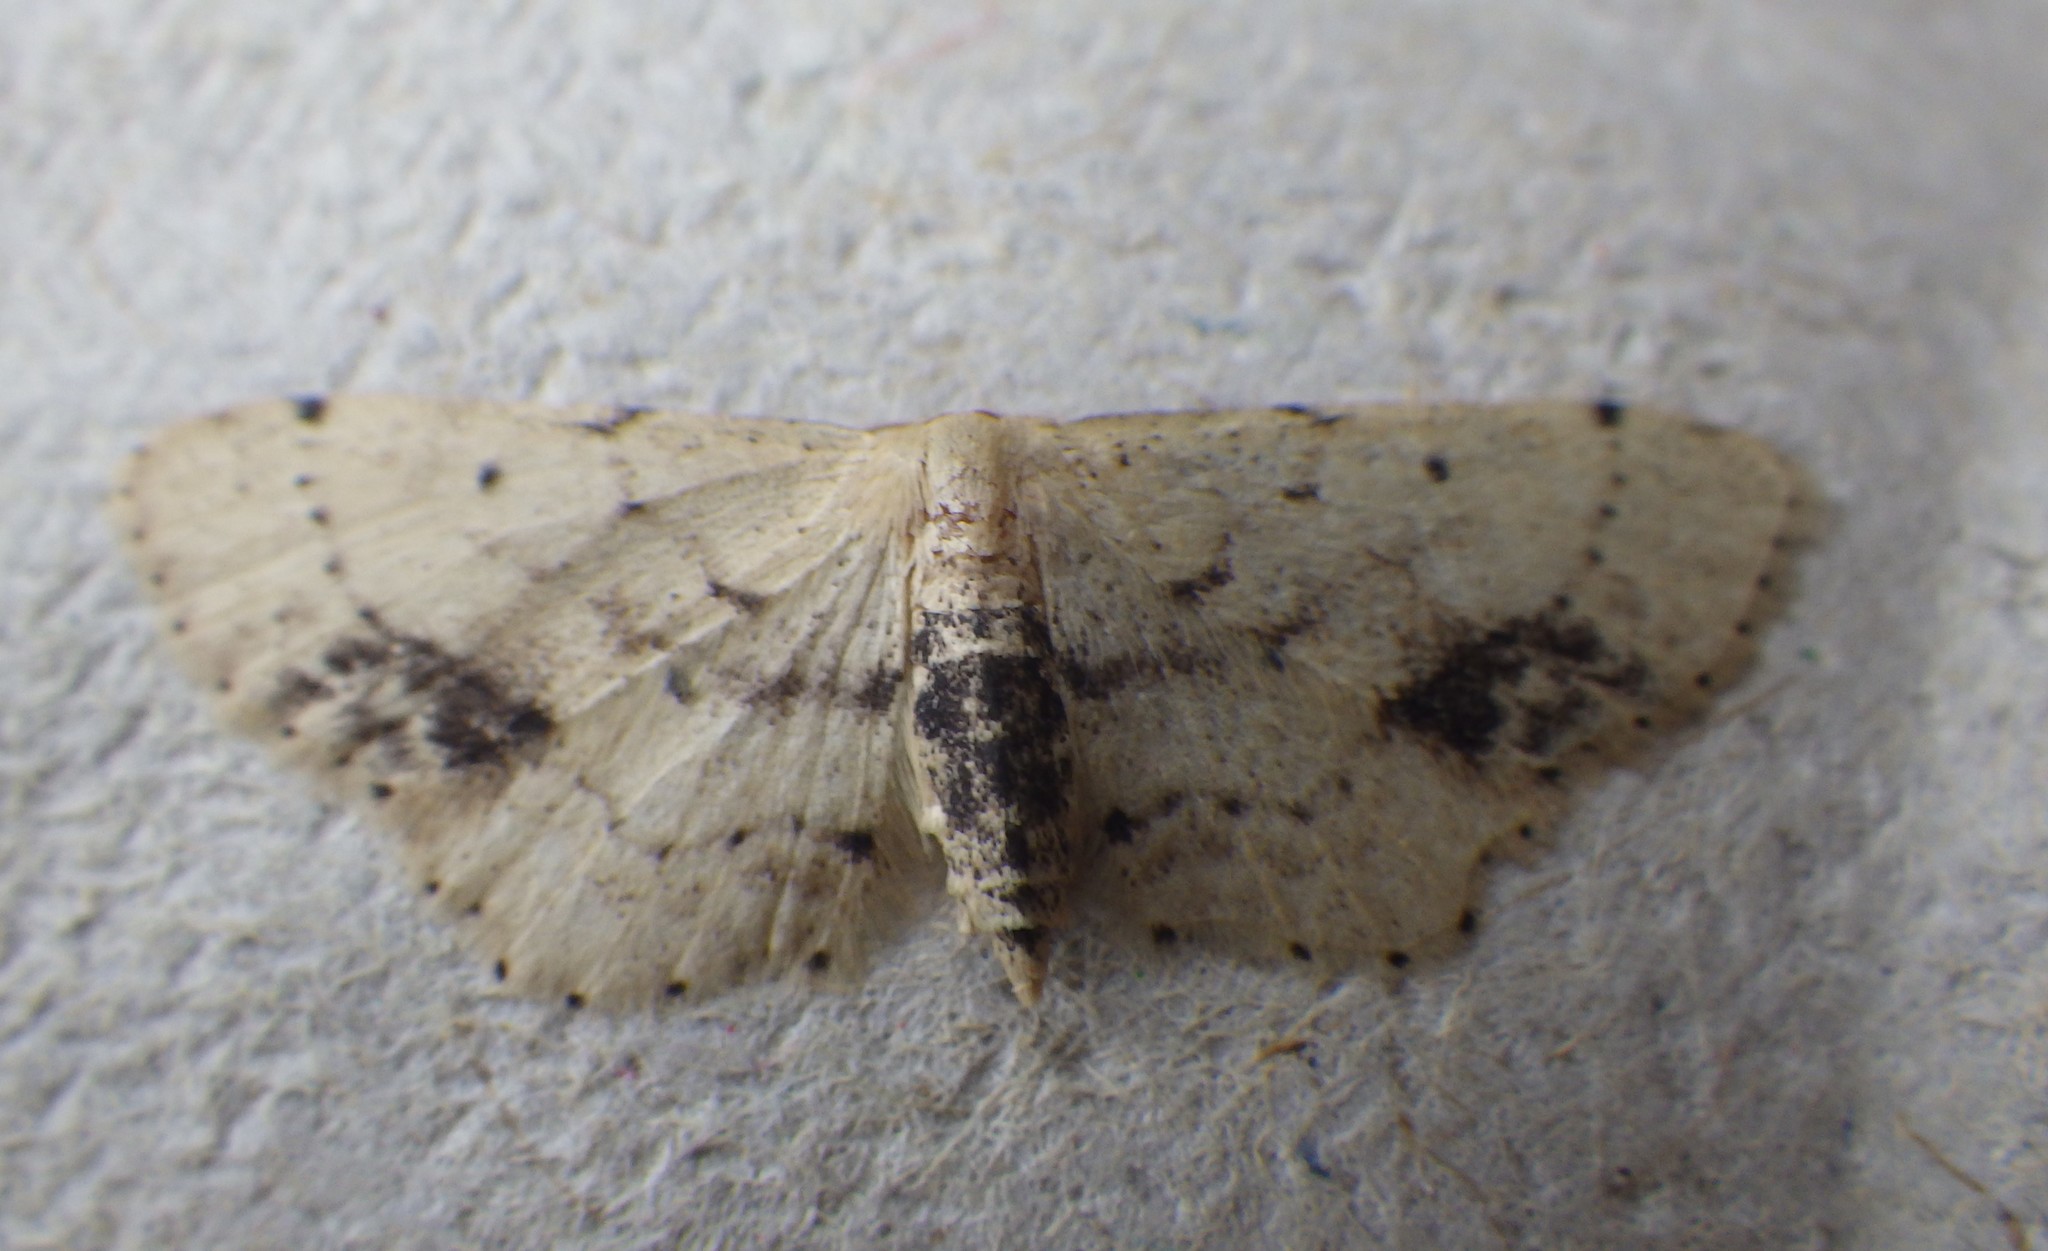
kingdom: Animalia
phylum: Arthropoda
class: Insecta
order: Lepidoptera
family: Geometridae
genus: Idaea
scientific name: Idaea dimidiata
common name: Single-dotted wave
